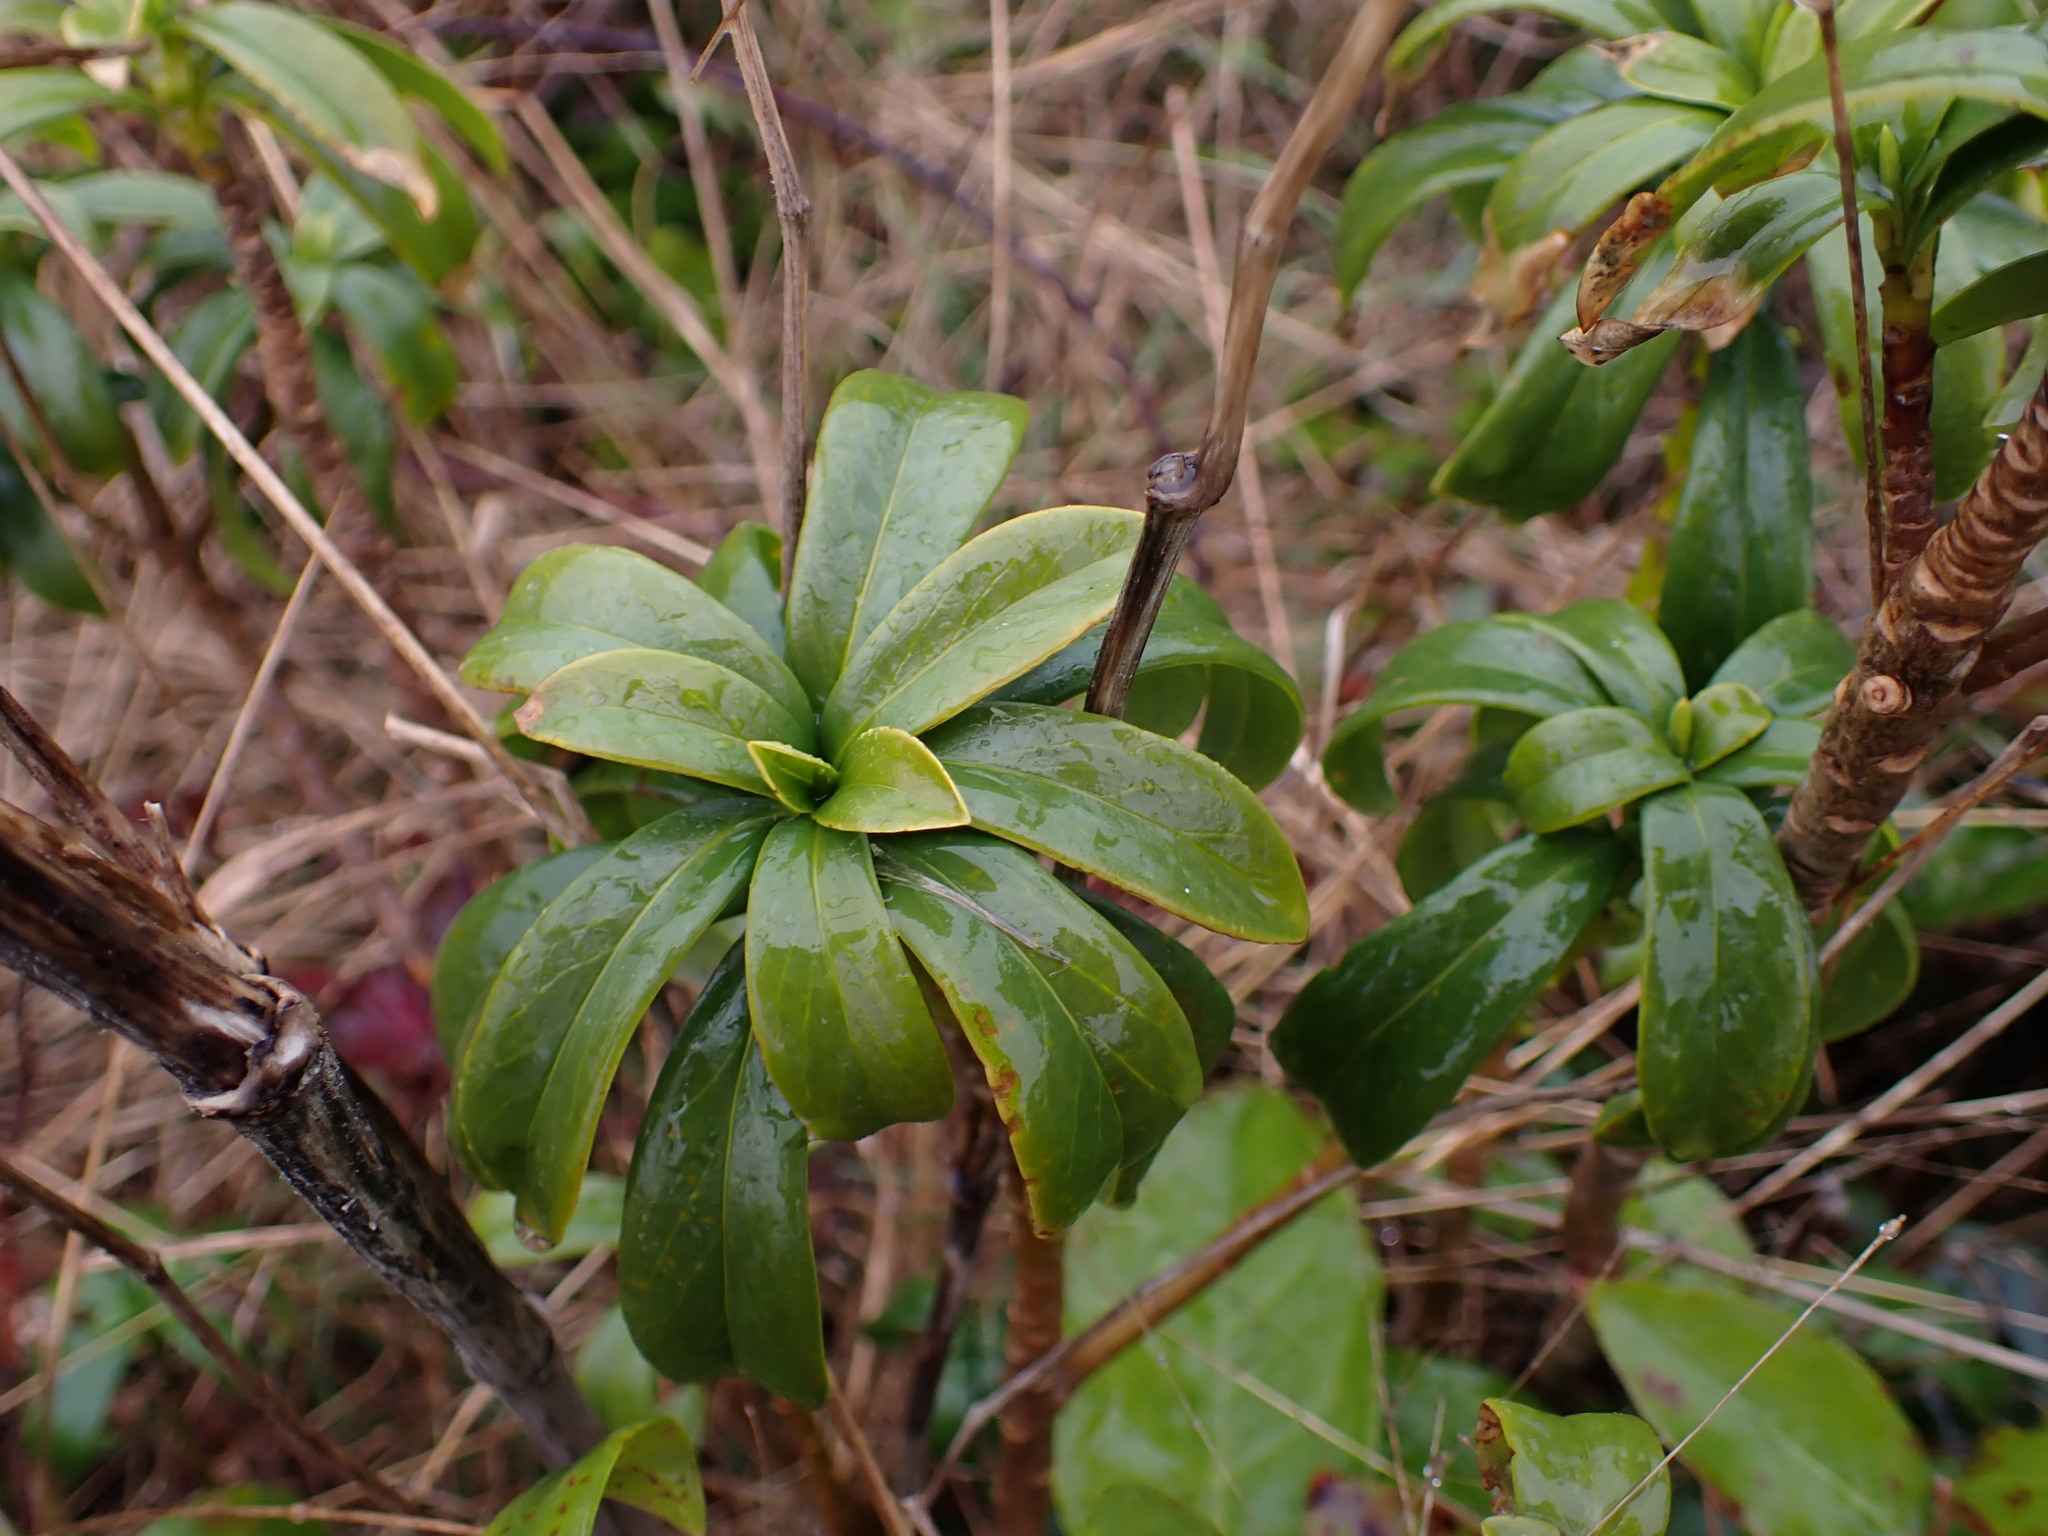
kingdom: Plantae
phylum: Tracheophyta
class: Magnoliopsida
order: Malvales
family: Thymelaeaceae
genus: Daphne
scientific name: Daphne laureola
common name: Spurge-laurel
